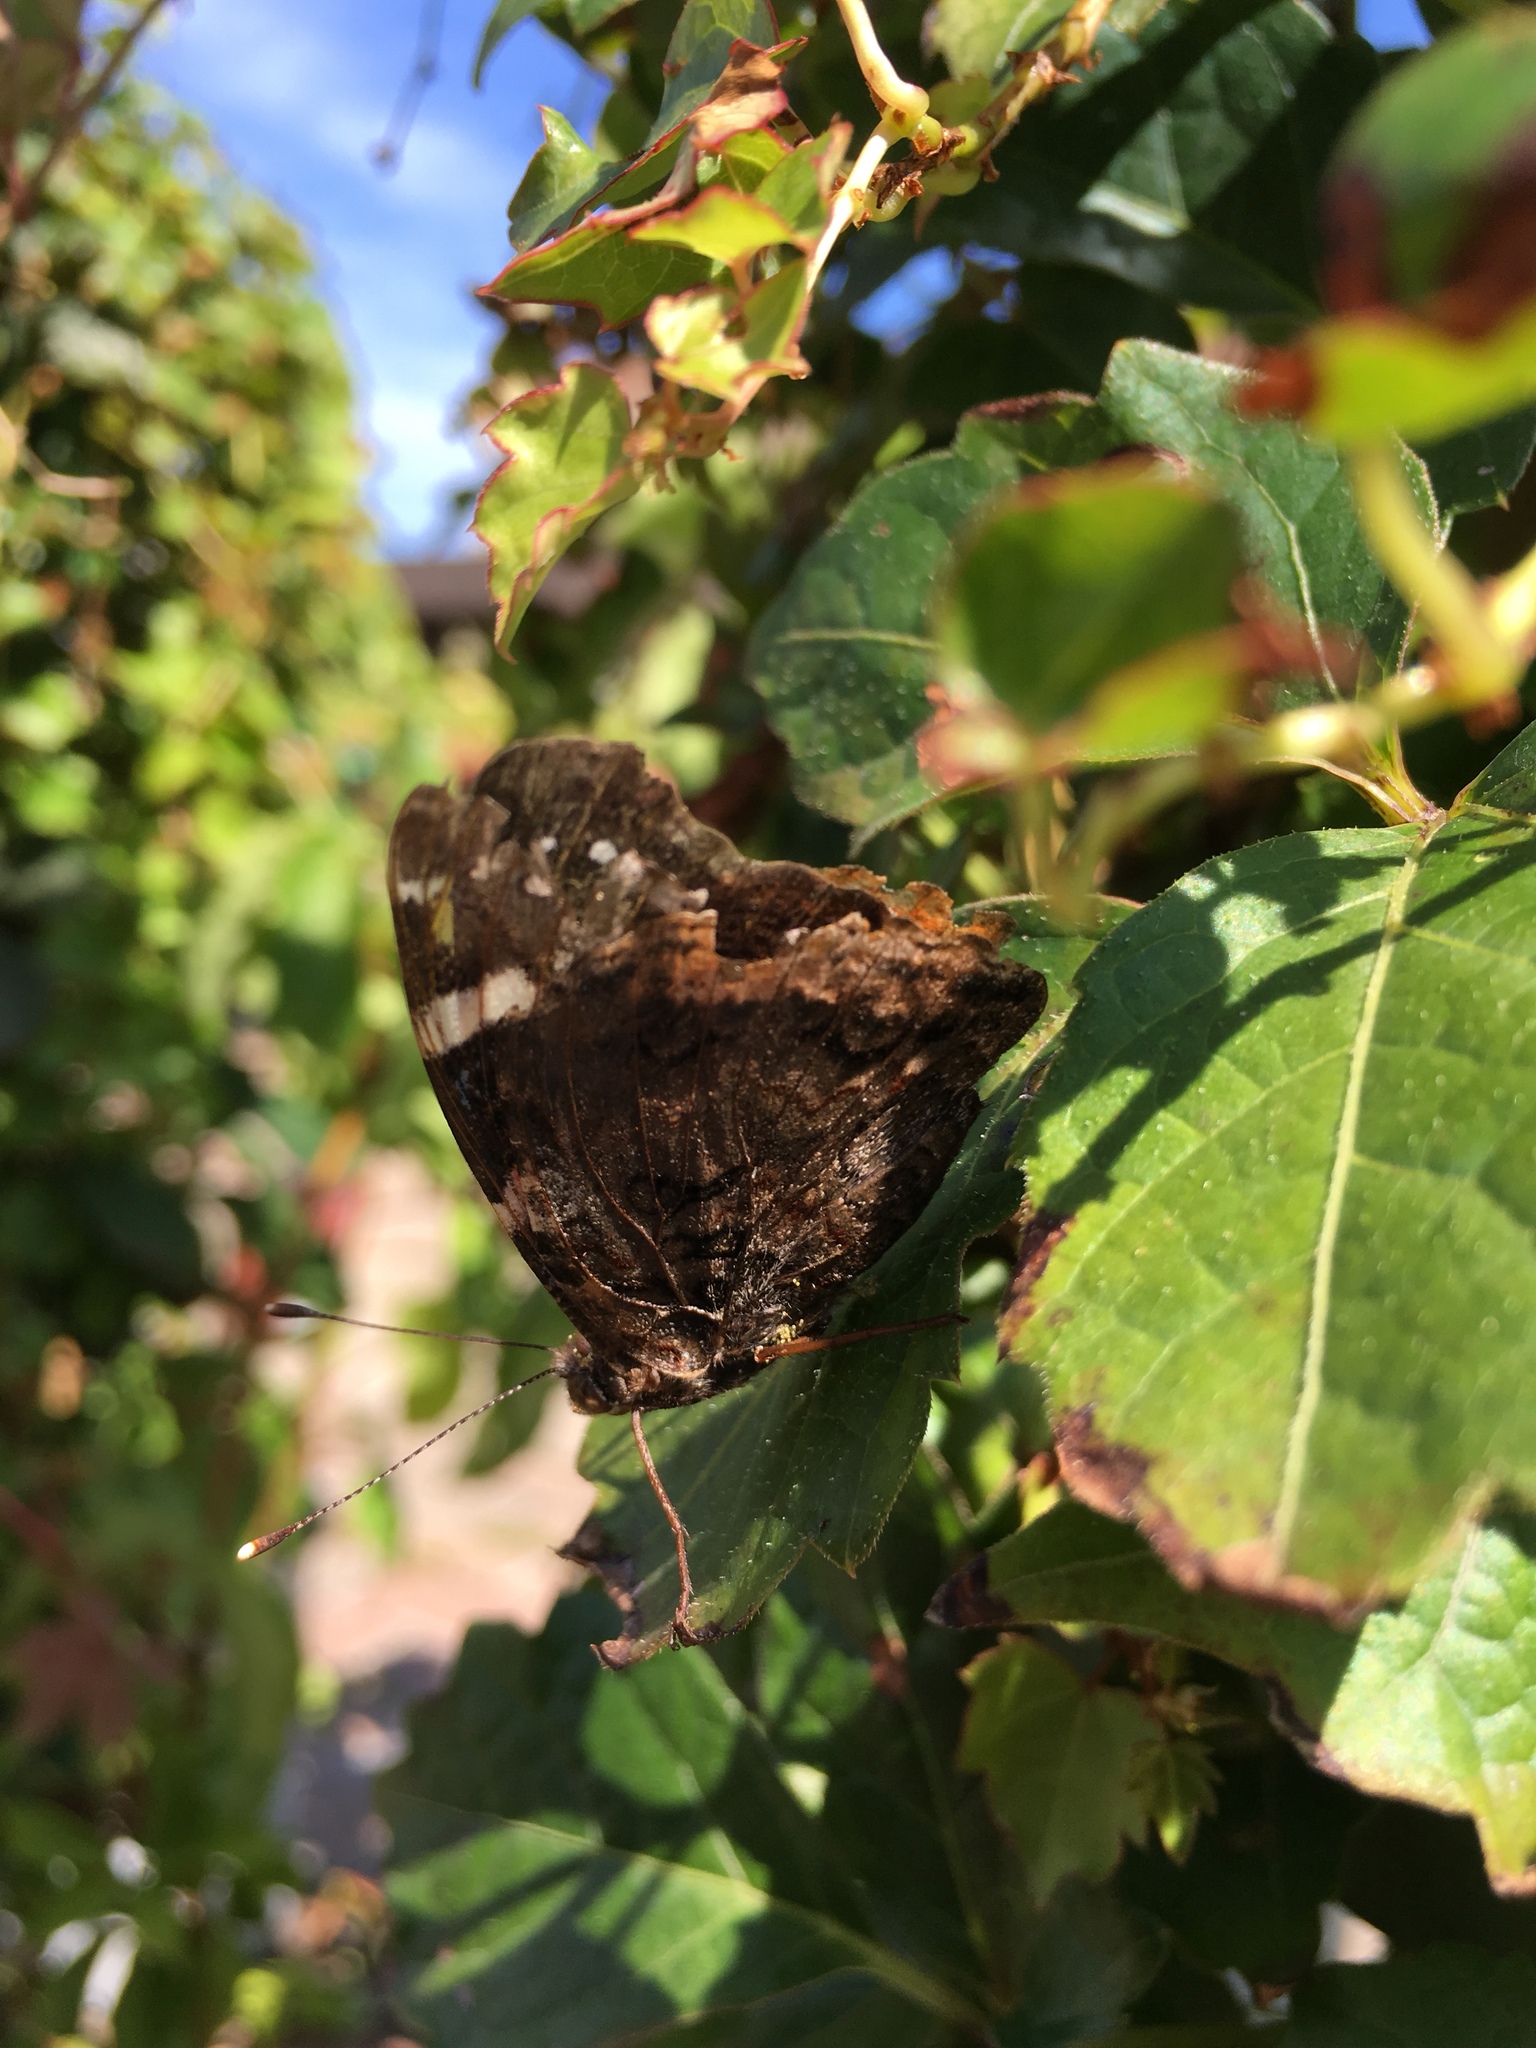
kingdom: Animalia
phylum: Arthropoda
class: Insecta
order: Lepidoptera
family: Nymphalidae
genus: Vanessa
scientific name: Vanessa atalanta
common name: Red admiral
